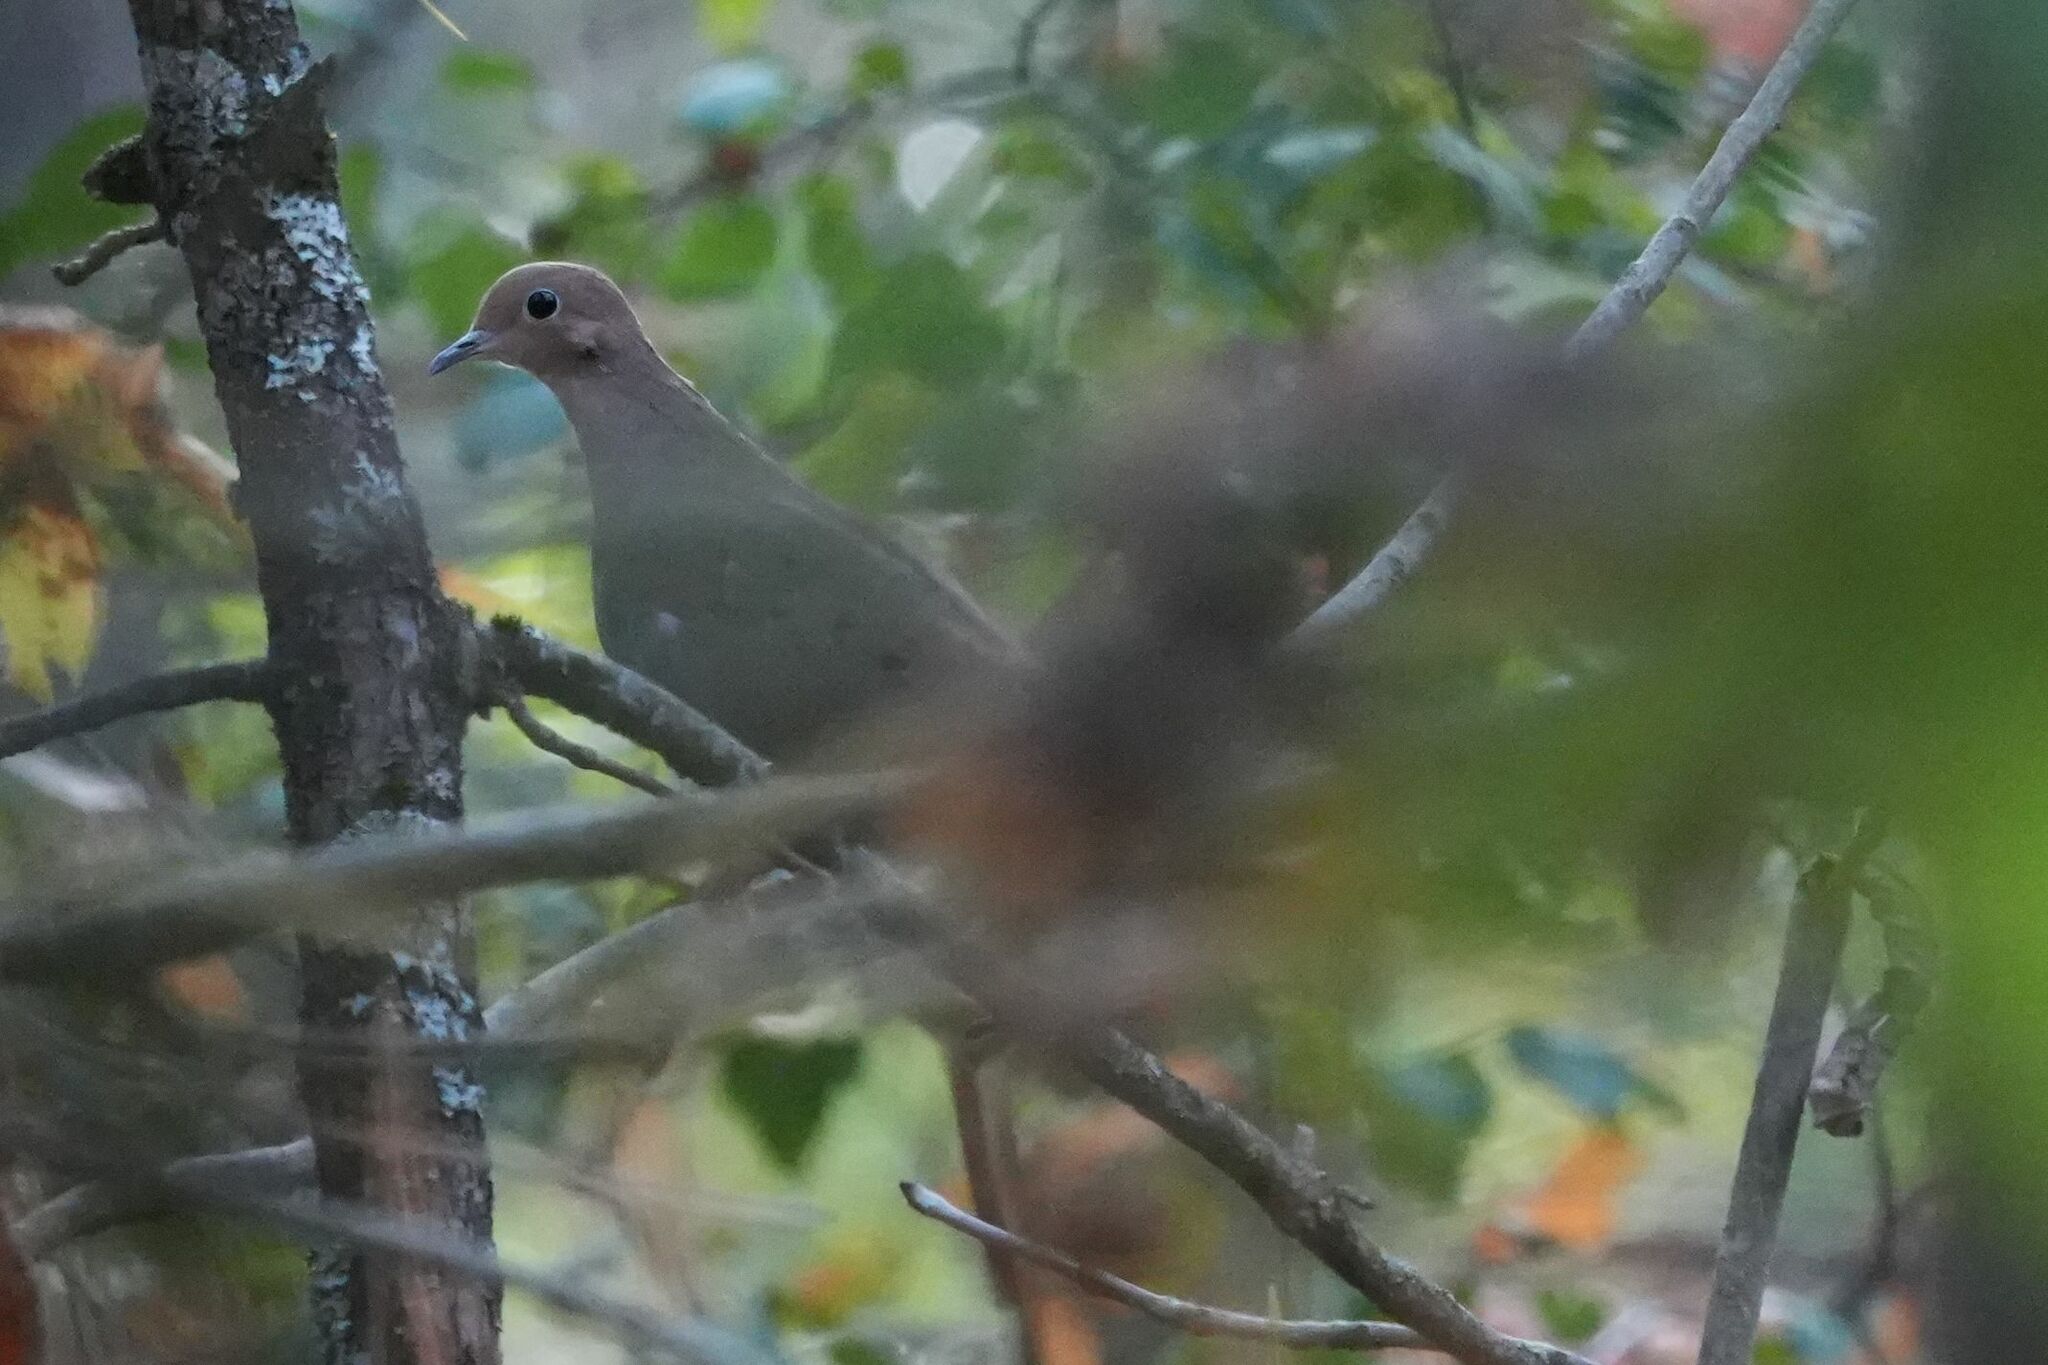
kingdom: Animalia
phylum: Chordata
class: Aves
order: Columbiformes
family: Columbidae
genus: Zenaida
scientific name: Zenaida macroura
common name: Mourning dove
